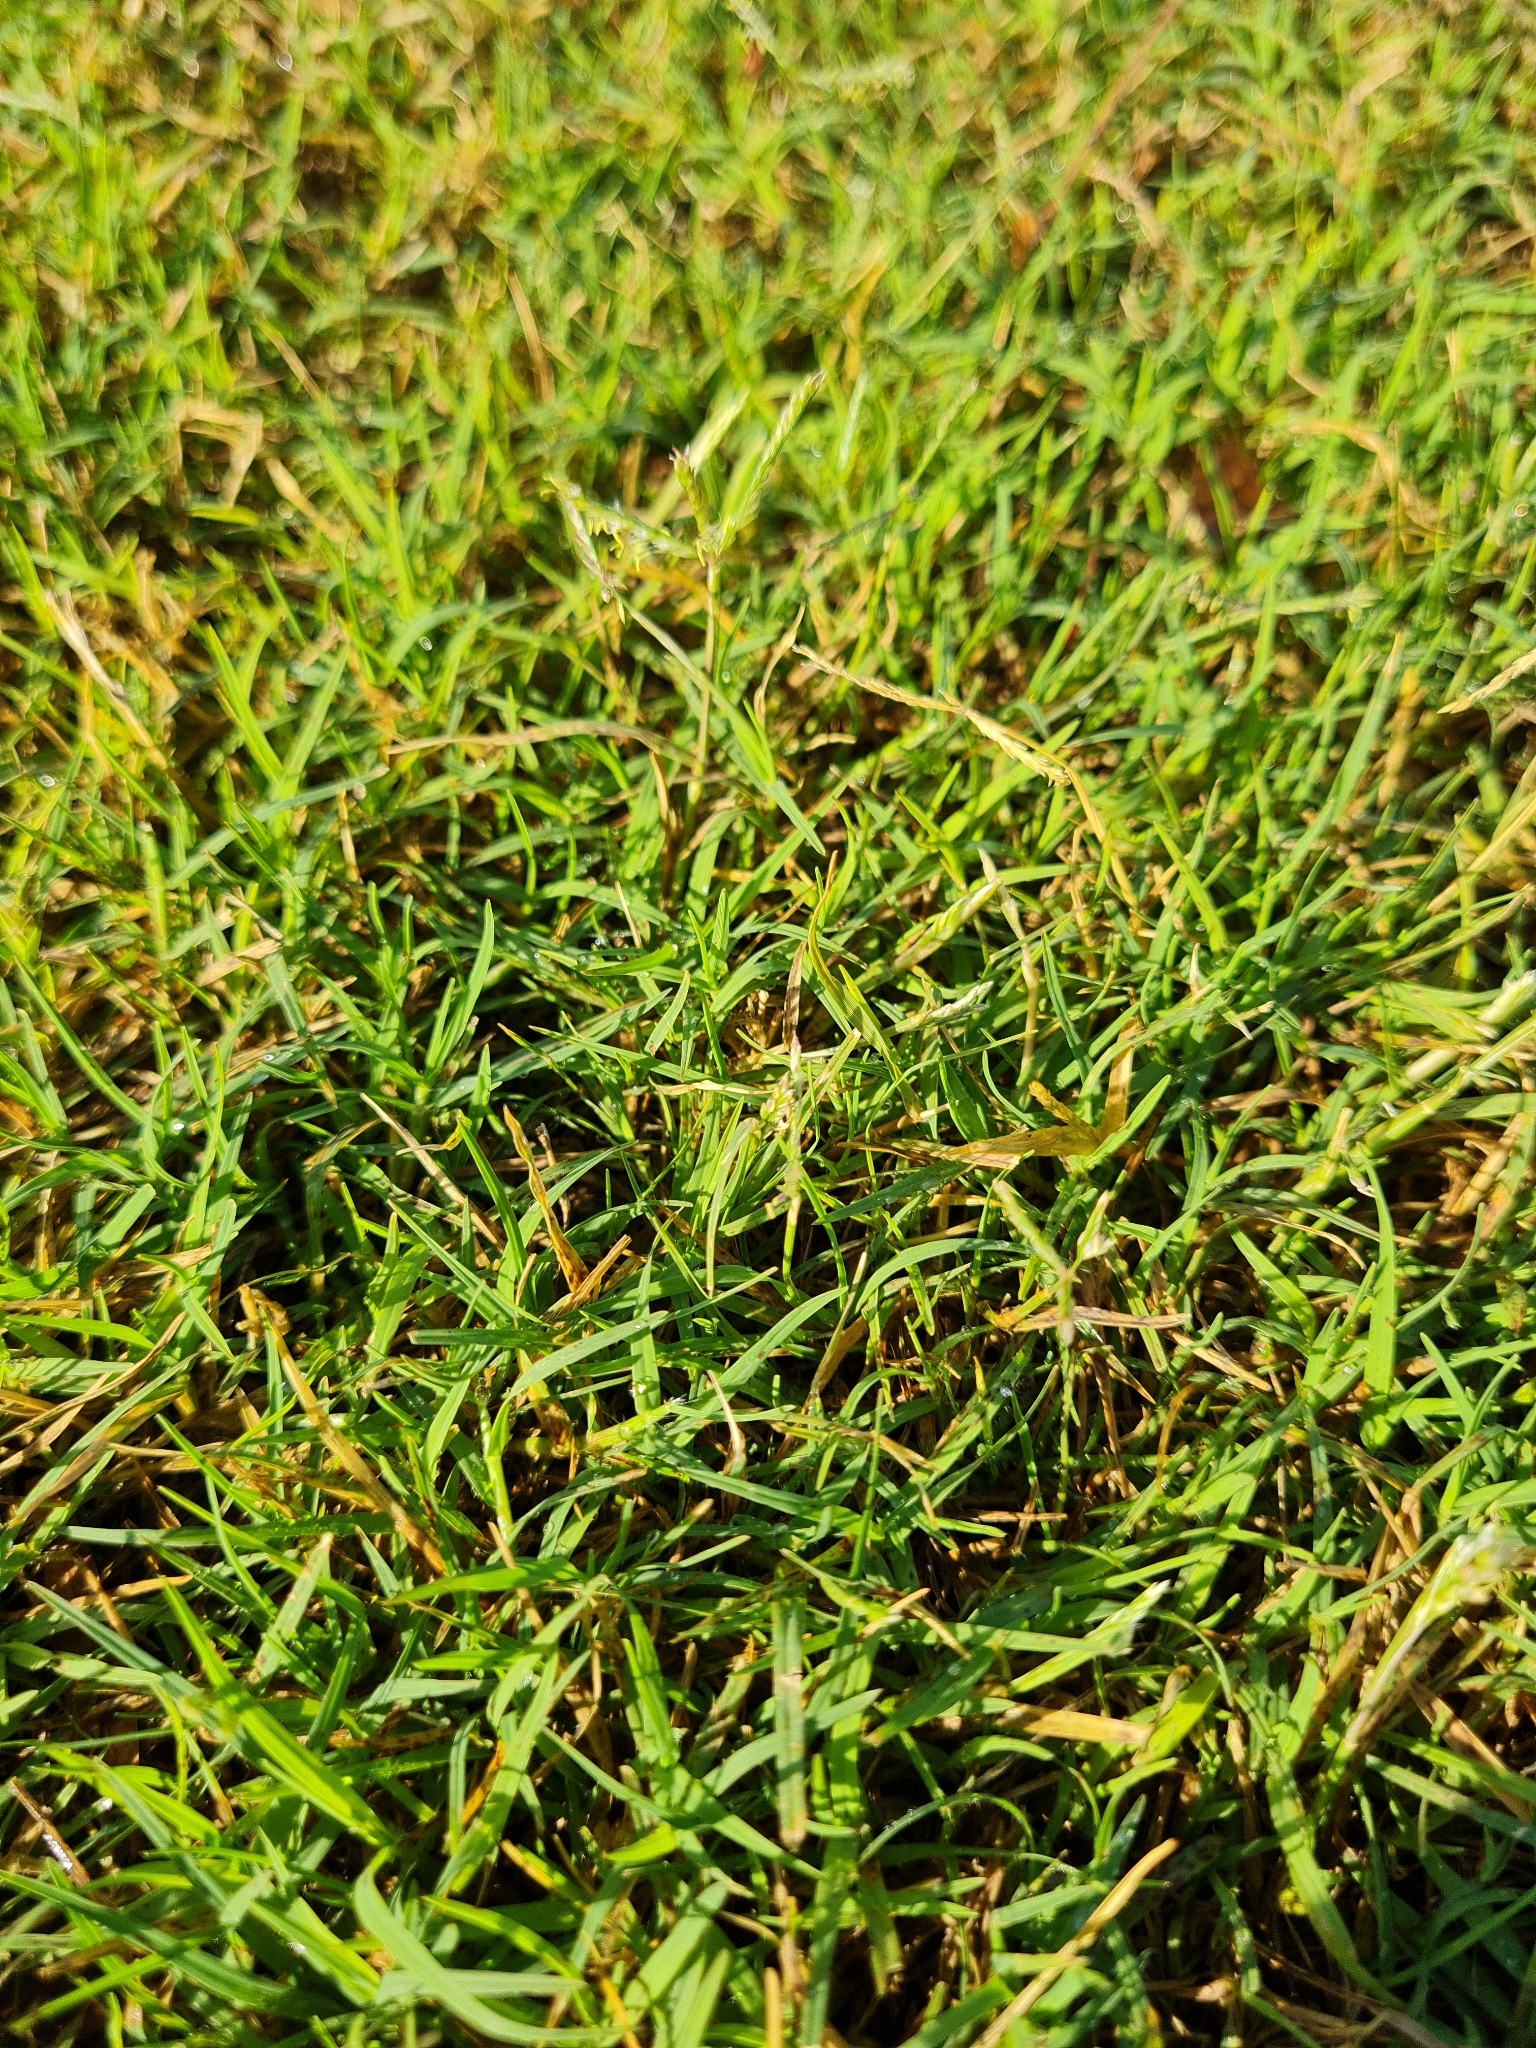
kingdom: Plantae
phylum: Tracheophyta
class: Liliopsida
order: Poales
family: Poaceae
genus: Cenchrus
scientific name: Cenchrus clandestinus
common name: Kikuyugrass
